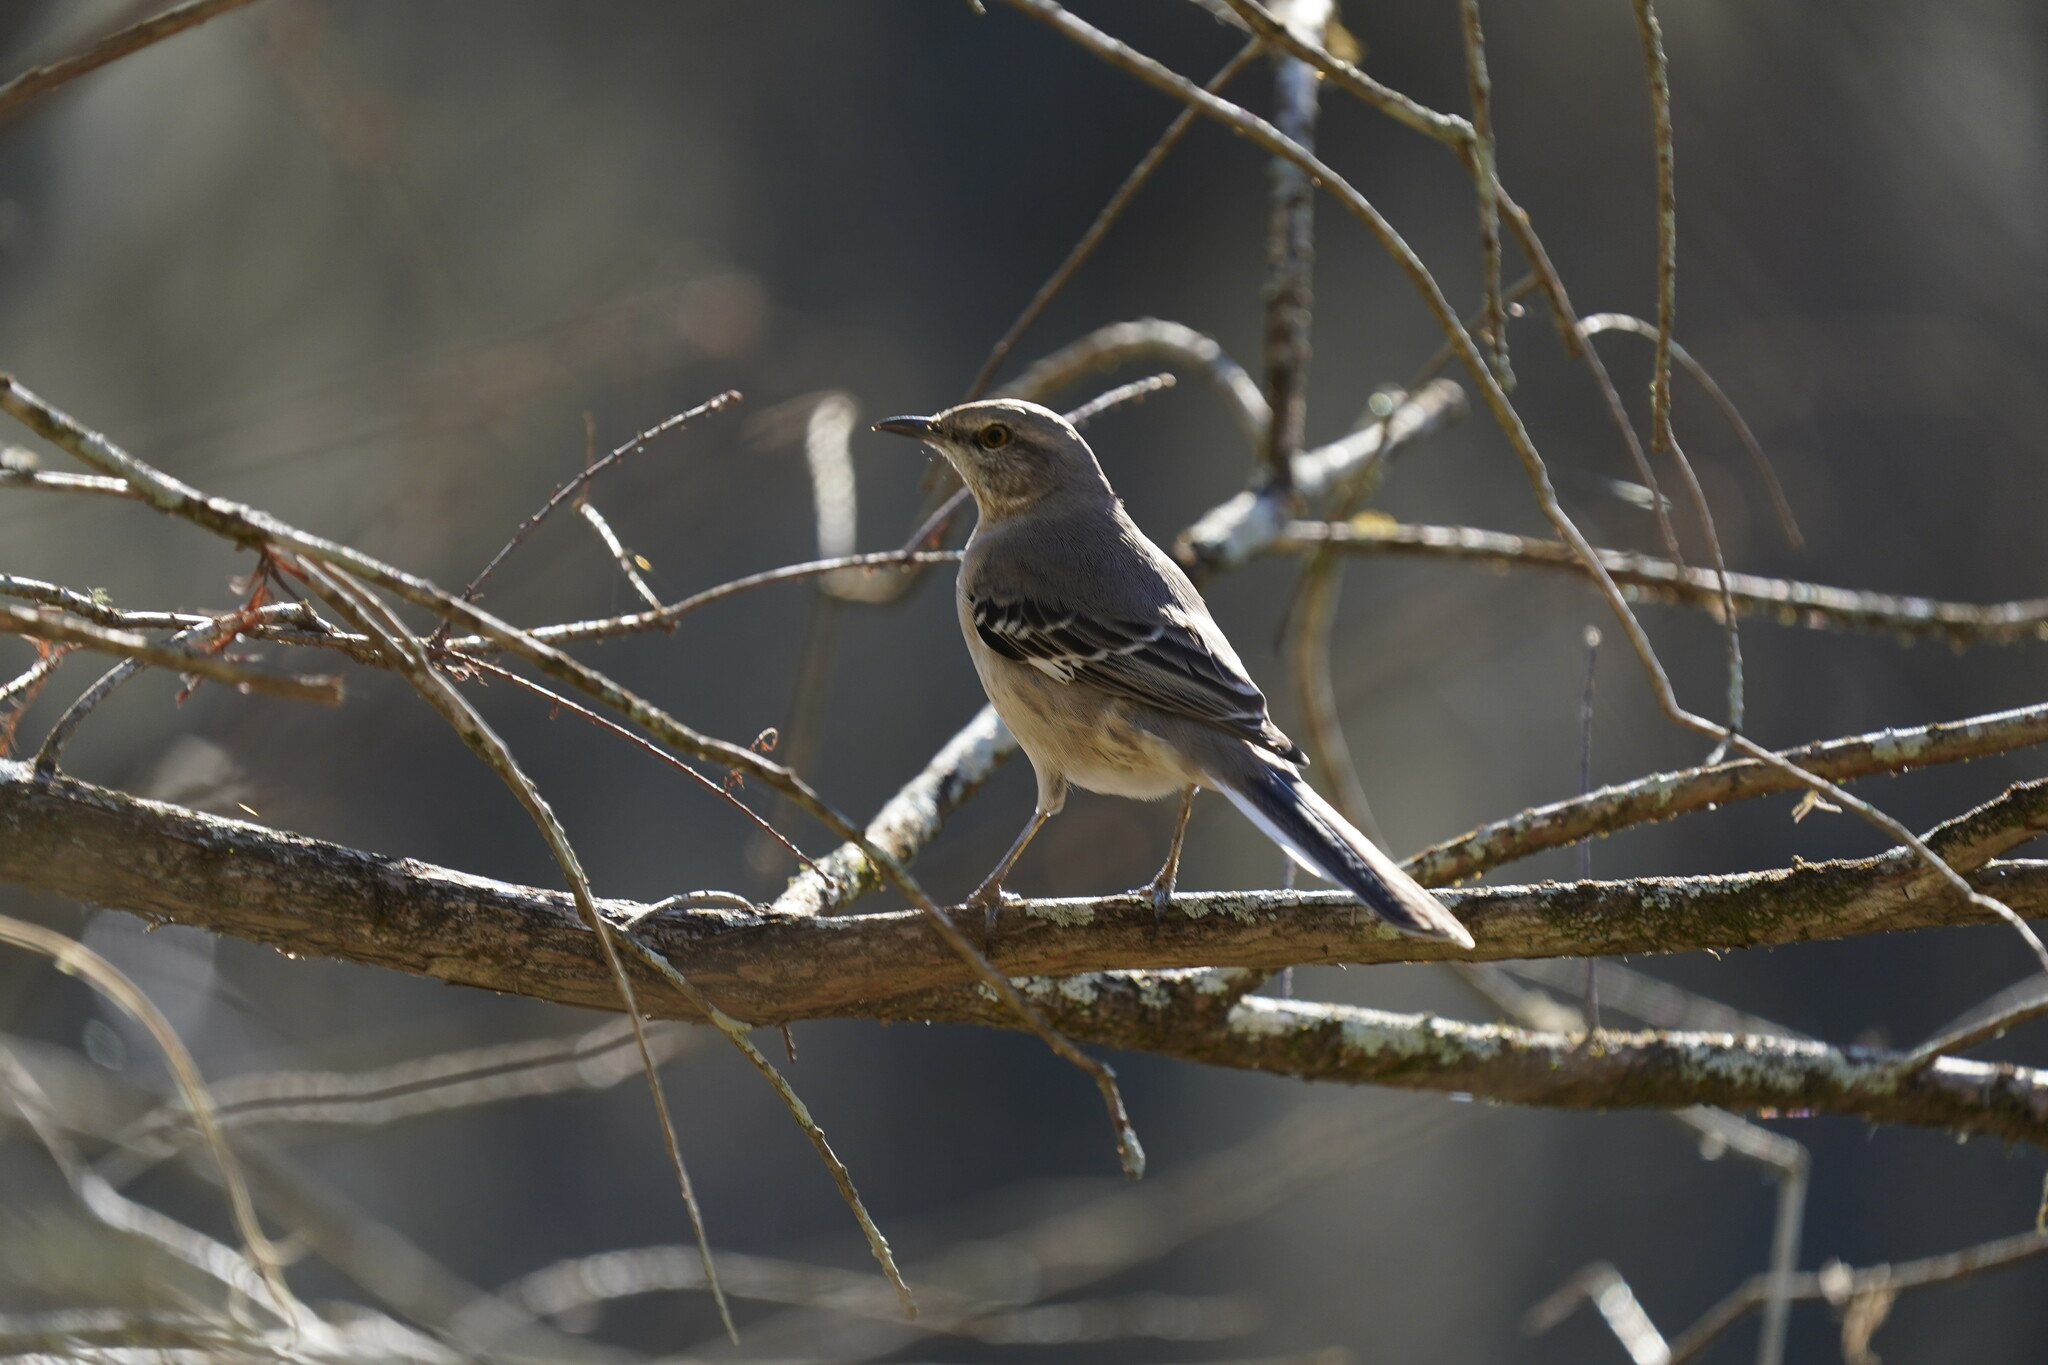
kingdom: Animalia
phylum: Chordata
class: Aves
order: Passeriformes
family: Mimidae
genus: Mimus
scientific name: Mimus polyglottos
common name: Northern mockingbird
